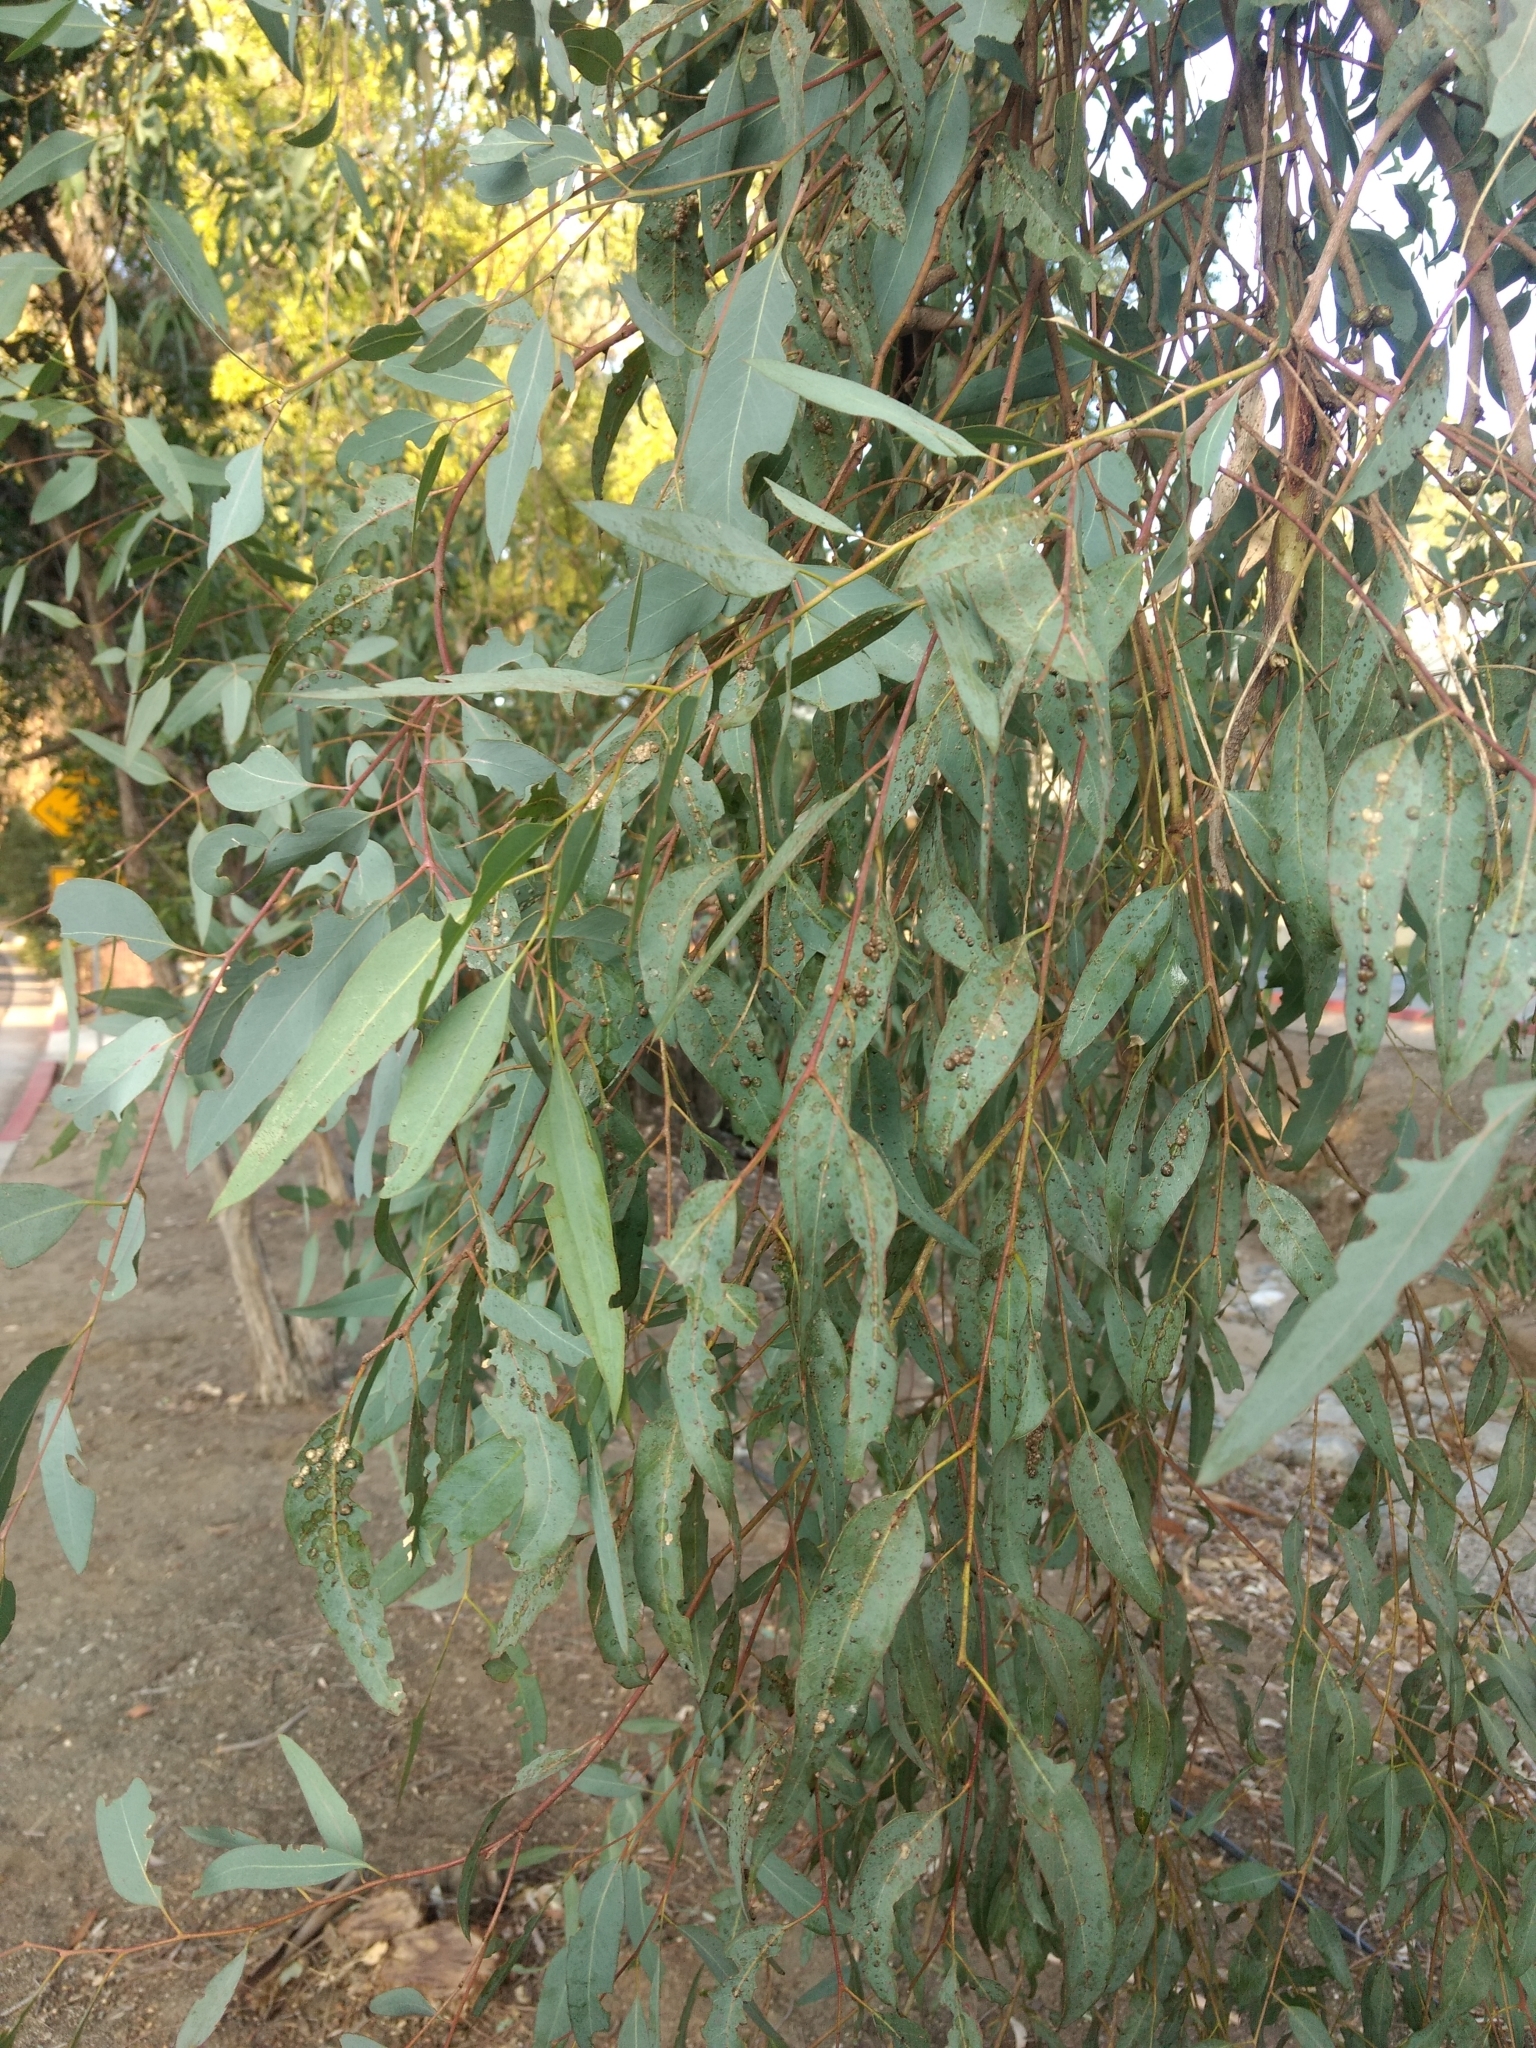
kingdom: Animalia
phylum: Arthropoda
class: Insecta
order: Hemiptera
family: Aphalaridae
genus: Glycaspis
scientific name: Glycaspis brimblecombei
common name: Red gum lerp psyllid
